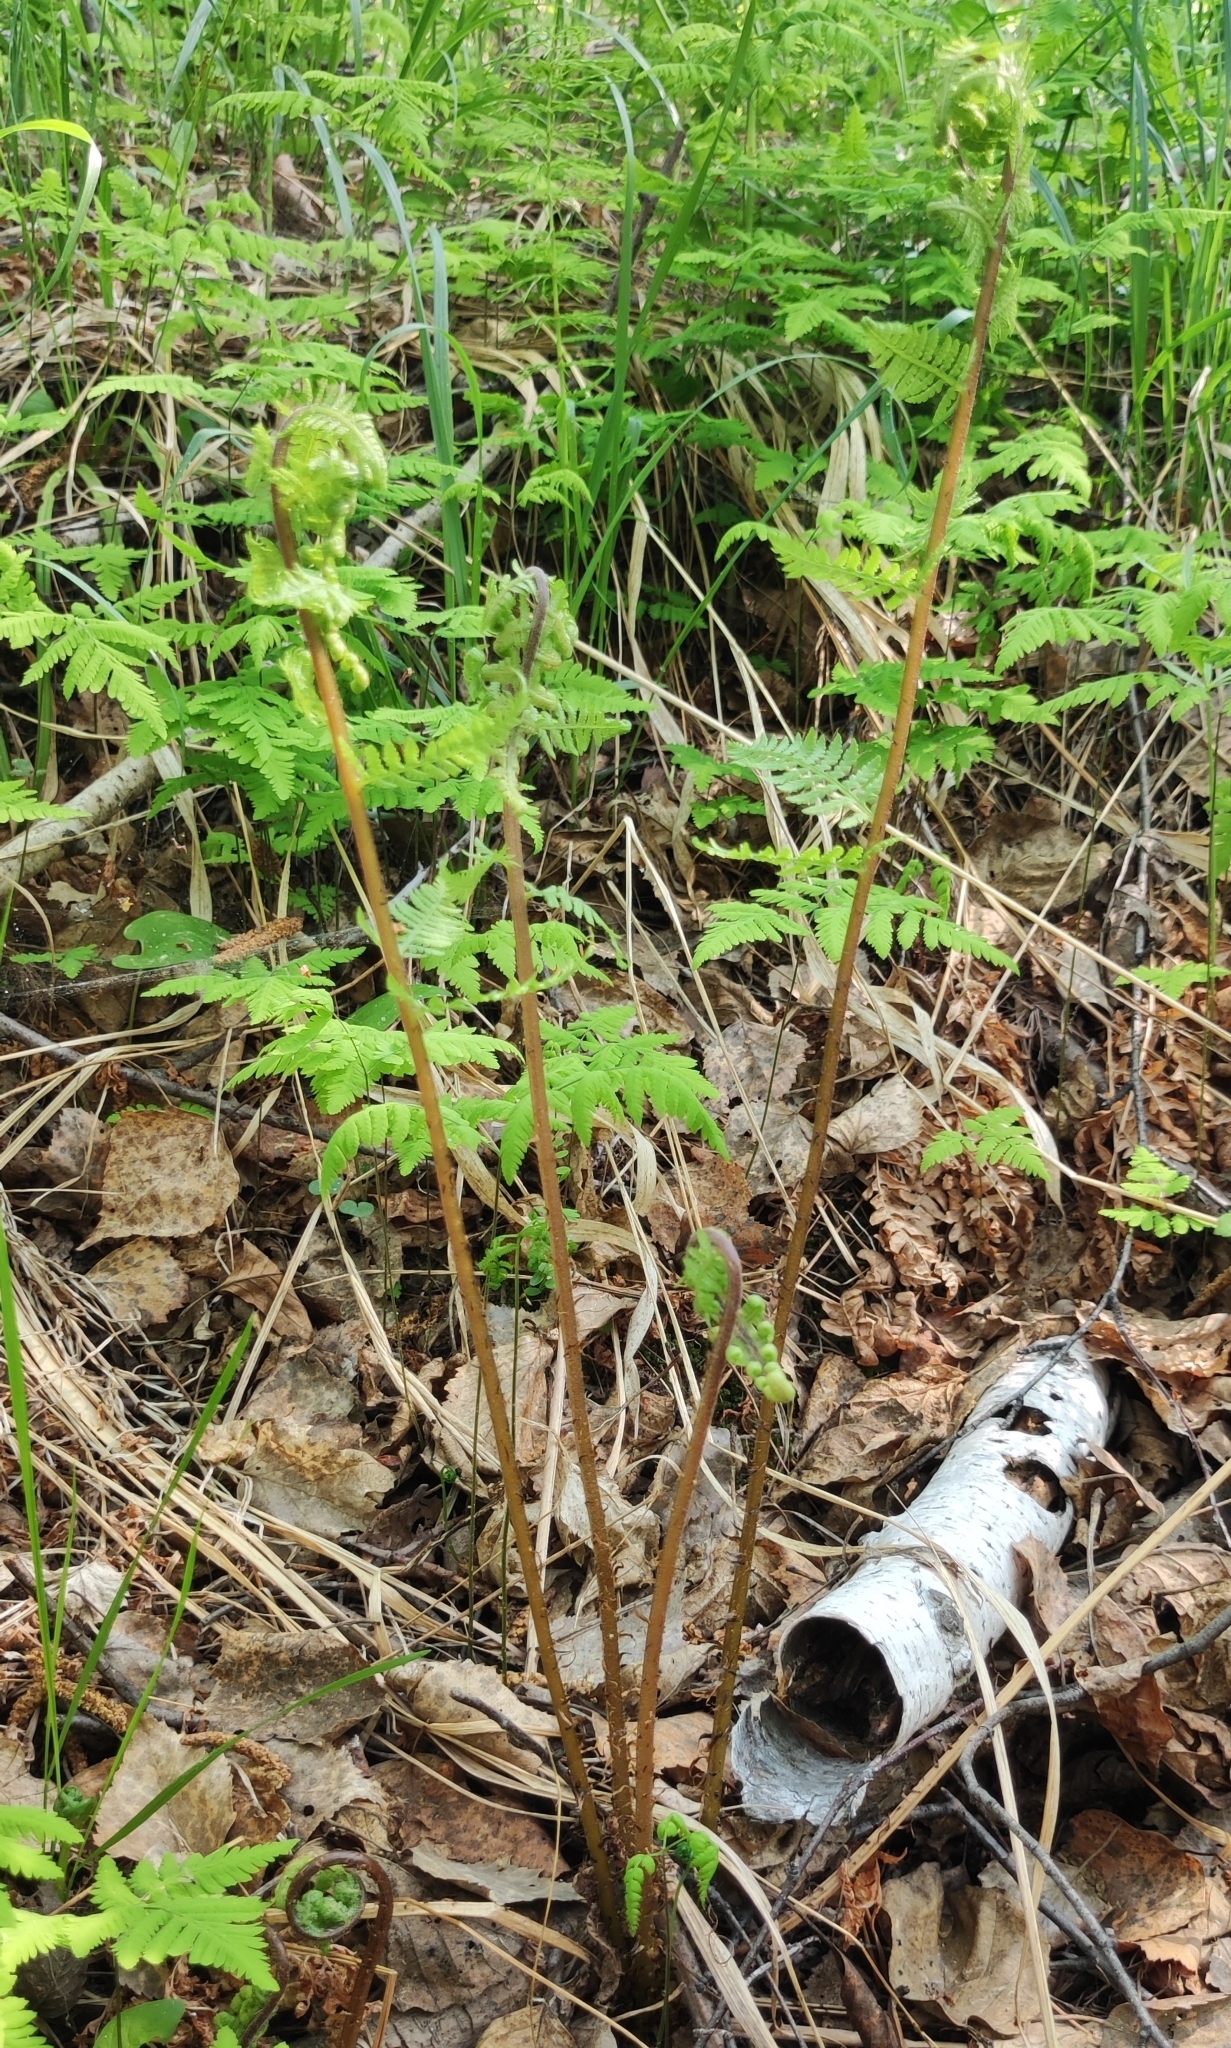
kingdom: Plantae
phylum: Tracheophyta
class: Polypodiopsida
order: Polypodiales
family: Athyriaceae
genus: Athyrium
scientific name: Athyrium filix-femina
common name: Lady fern
